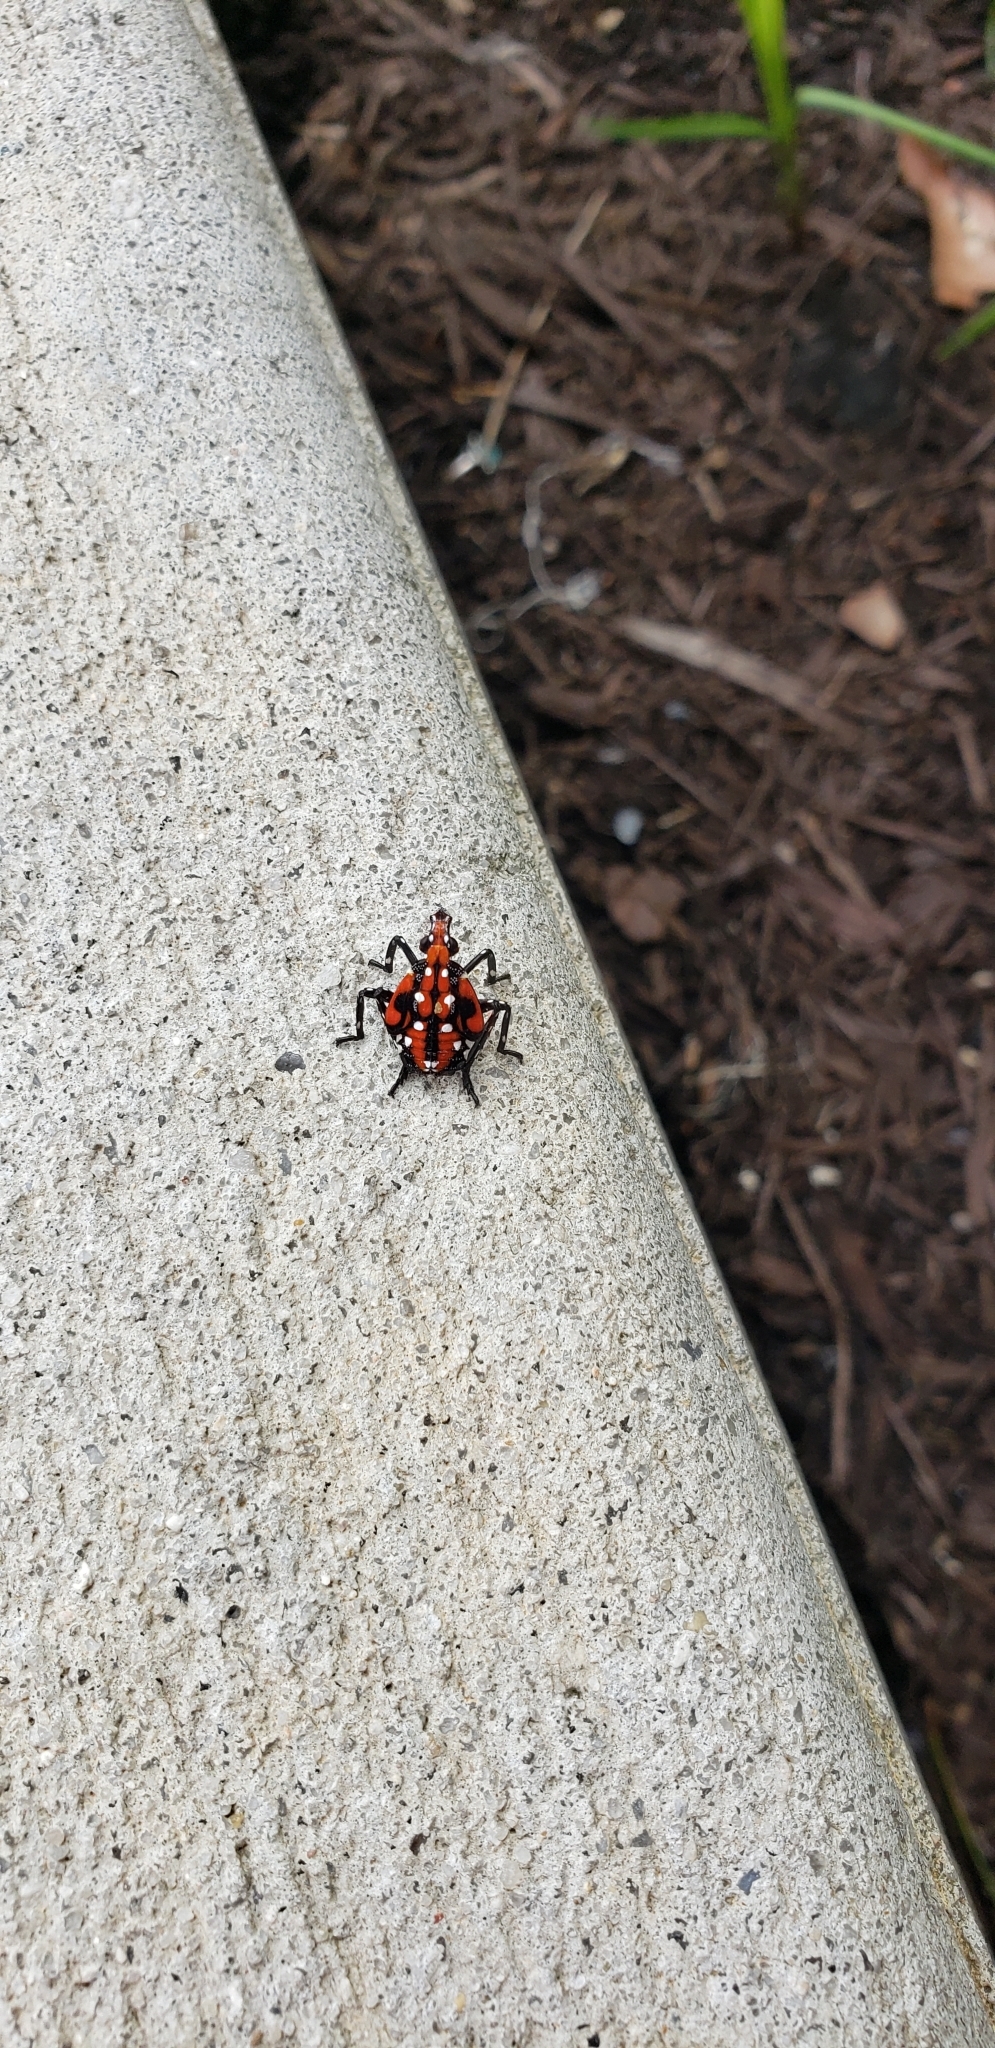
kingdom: Animalia
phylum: Arthropoda
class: Insecta
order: Hemiptera
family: Fulgoridae
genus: Lycorma
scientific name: Lycorma delicatula
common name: Spotted lanternfly
